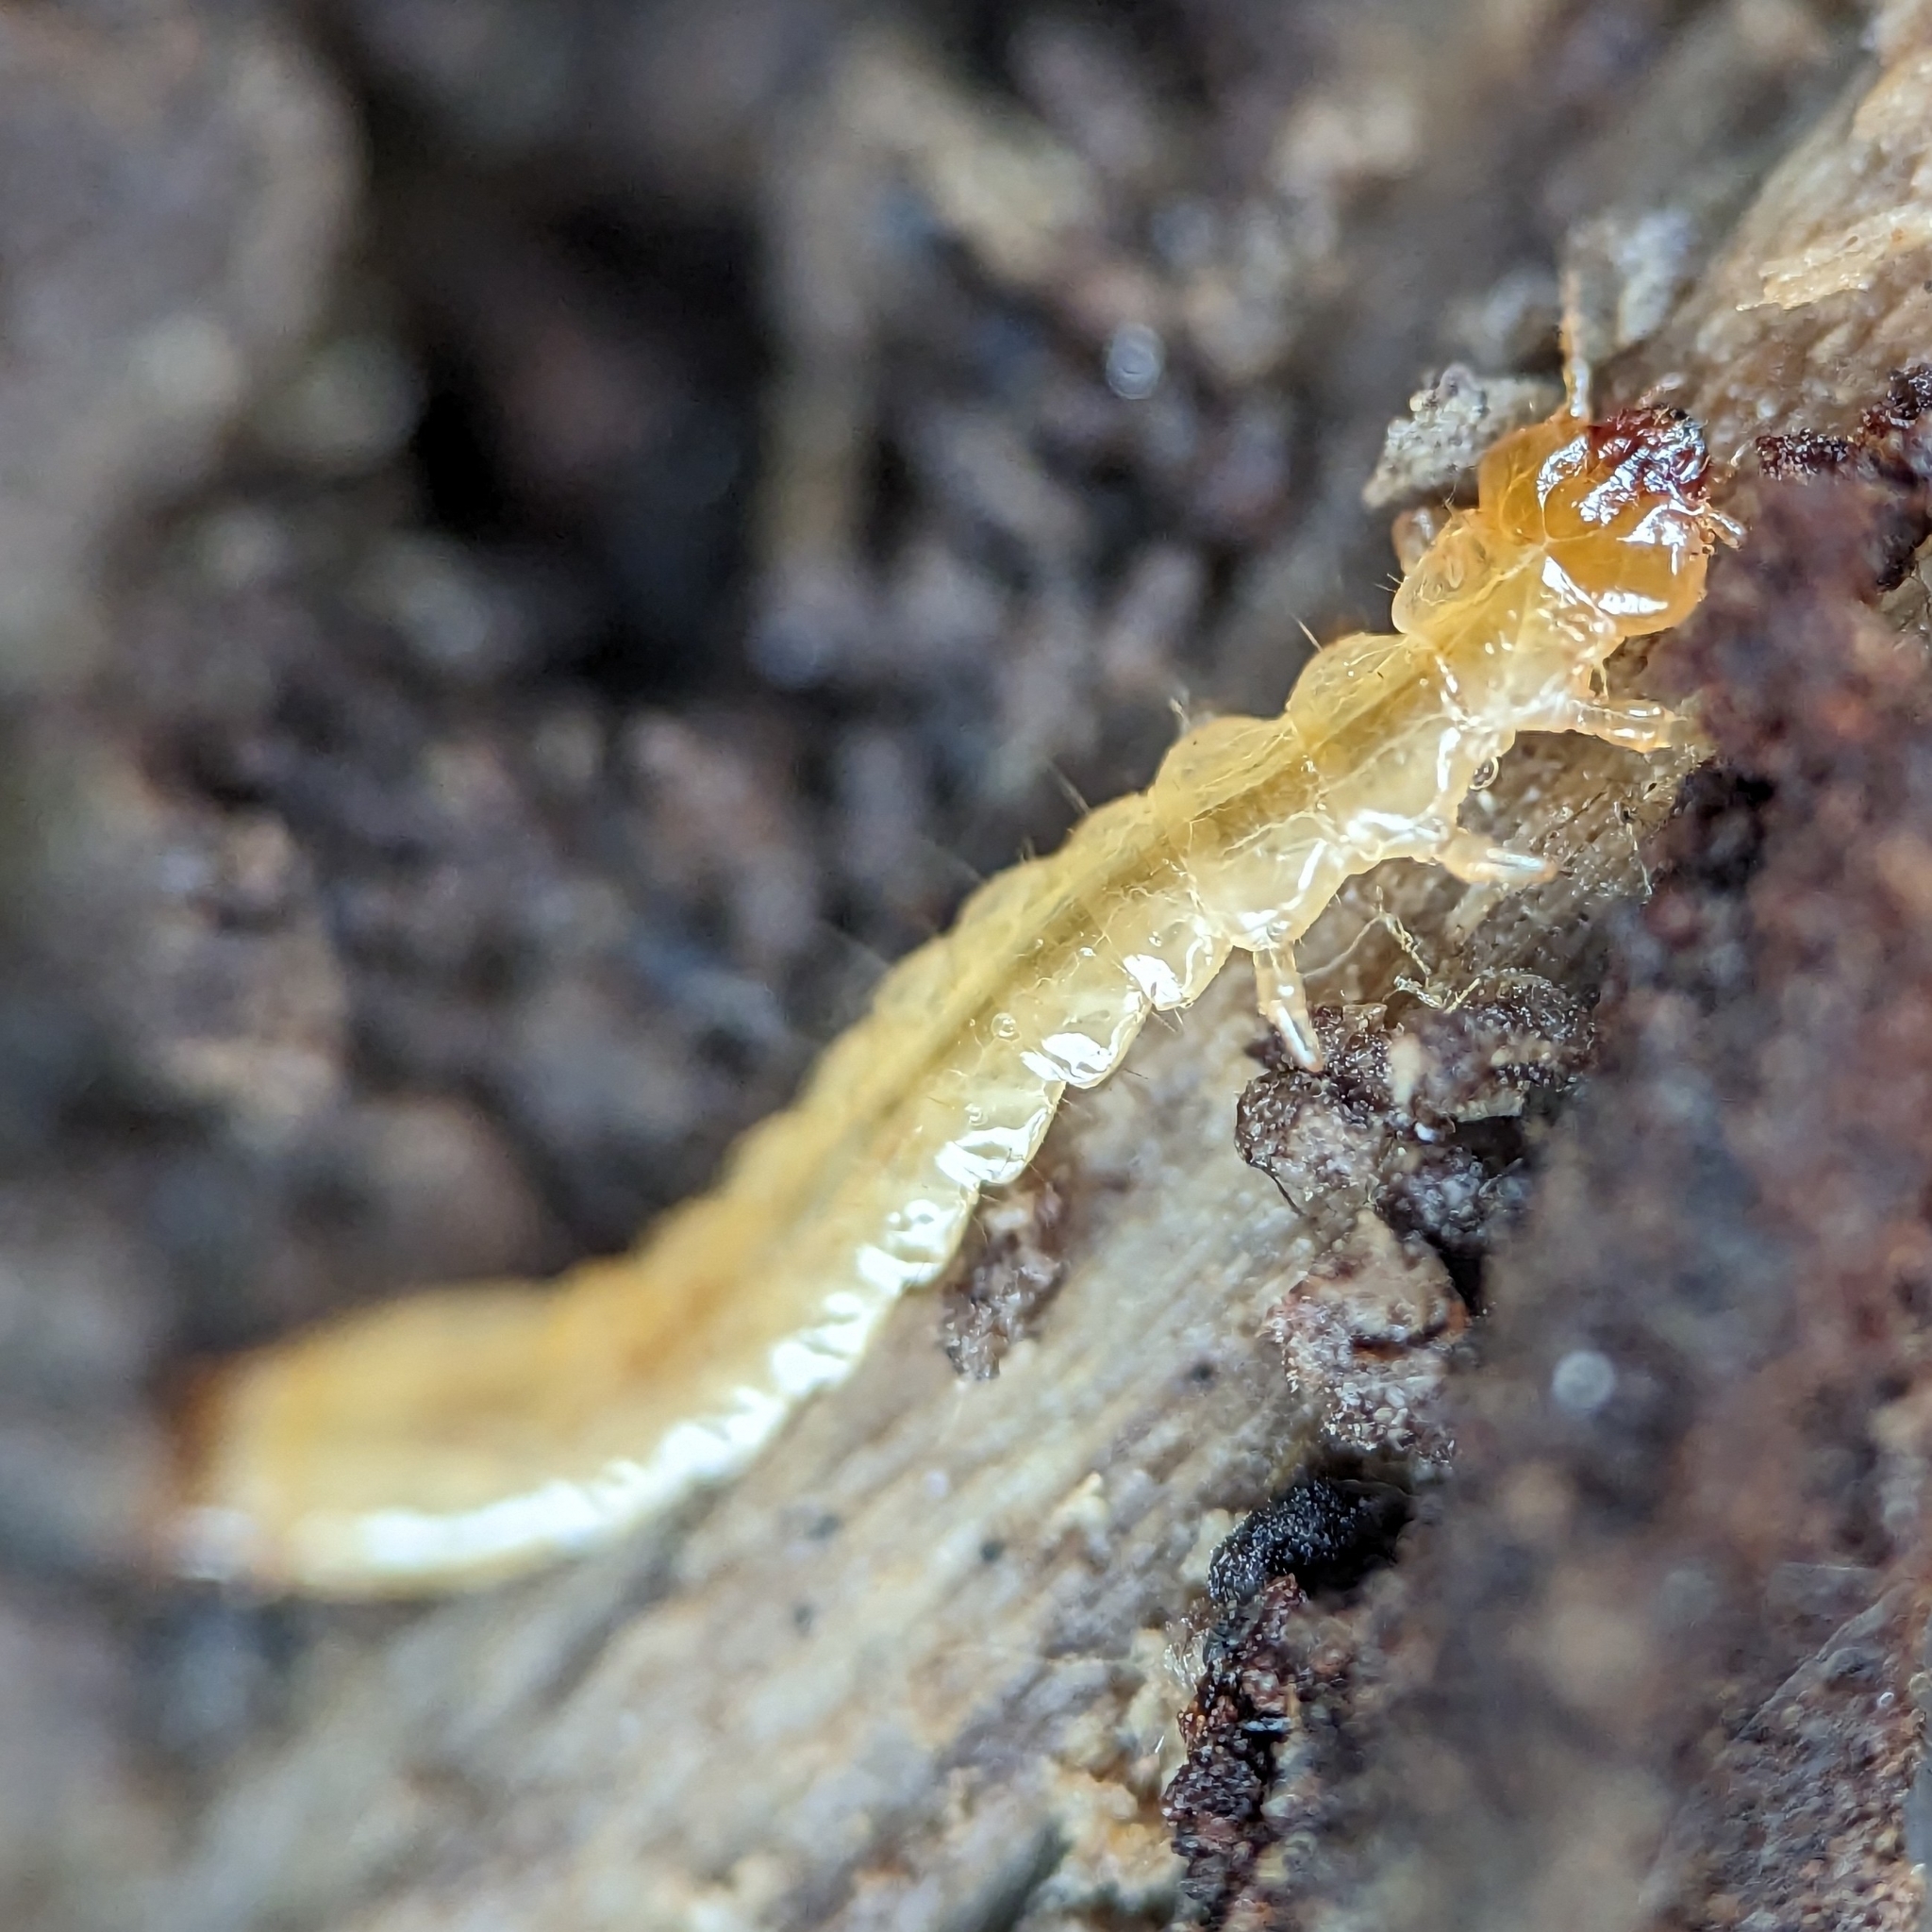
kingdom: Animalia
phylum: Arthropoda
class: Insecta
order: Coleoptera
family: Pyrochroidae
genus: Dendroides
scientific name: Dendroides canadensis
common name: Canada fire-colored beetle
